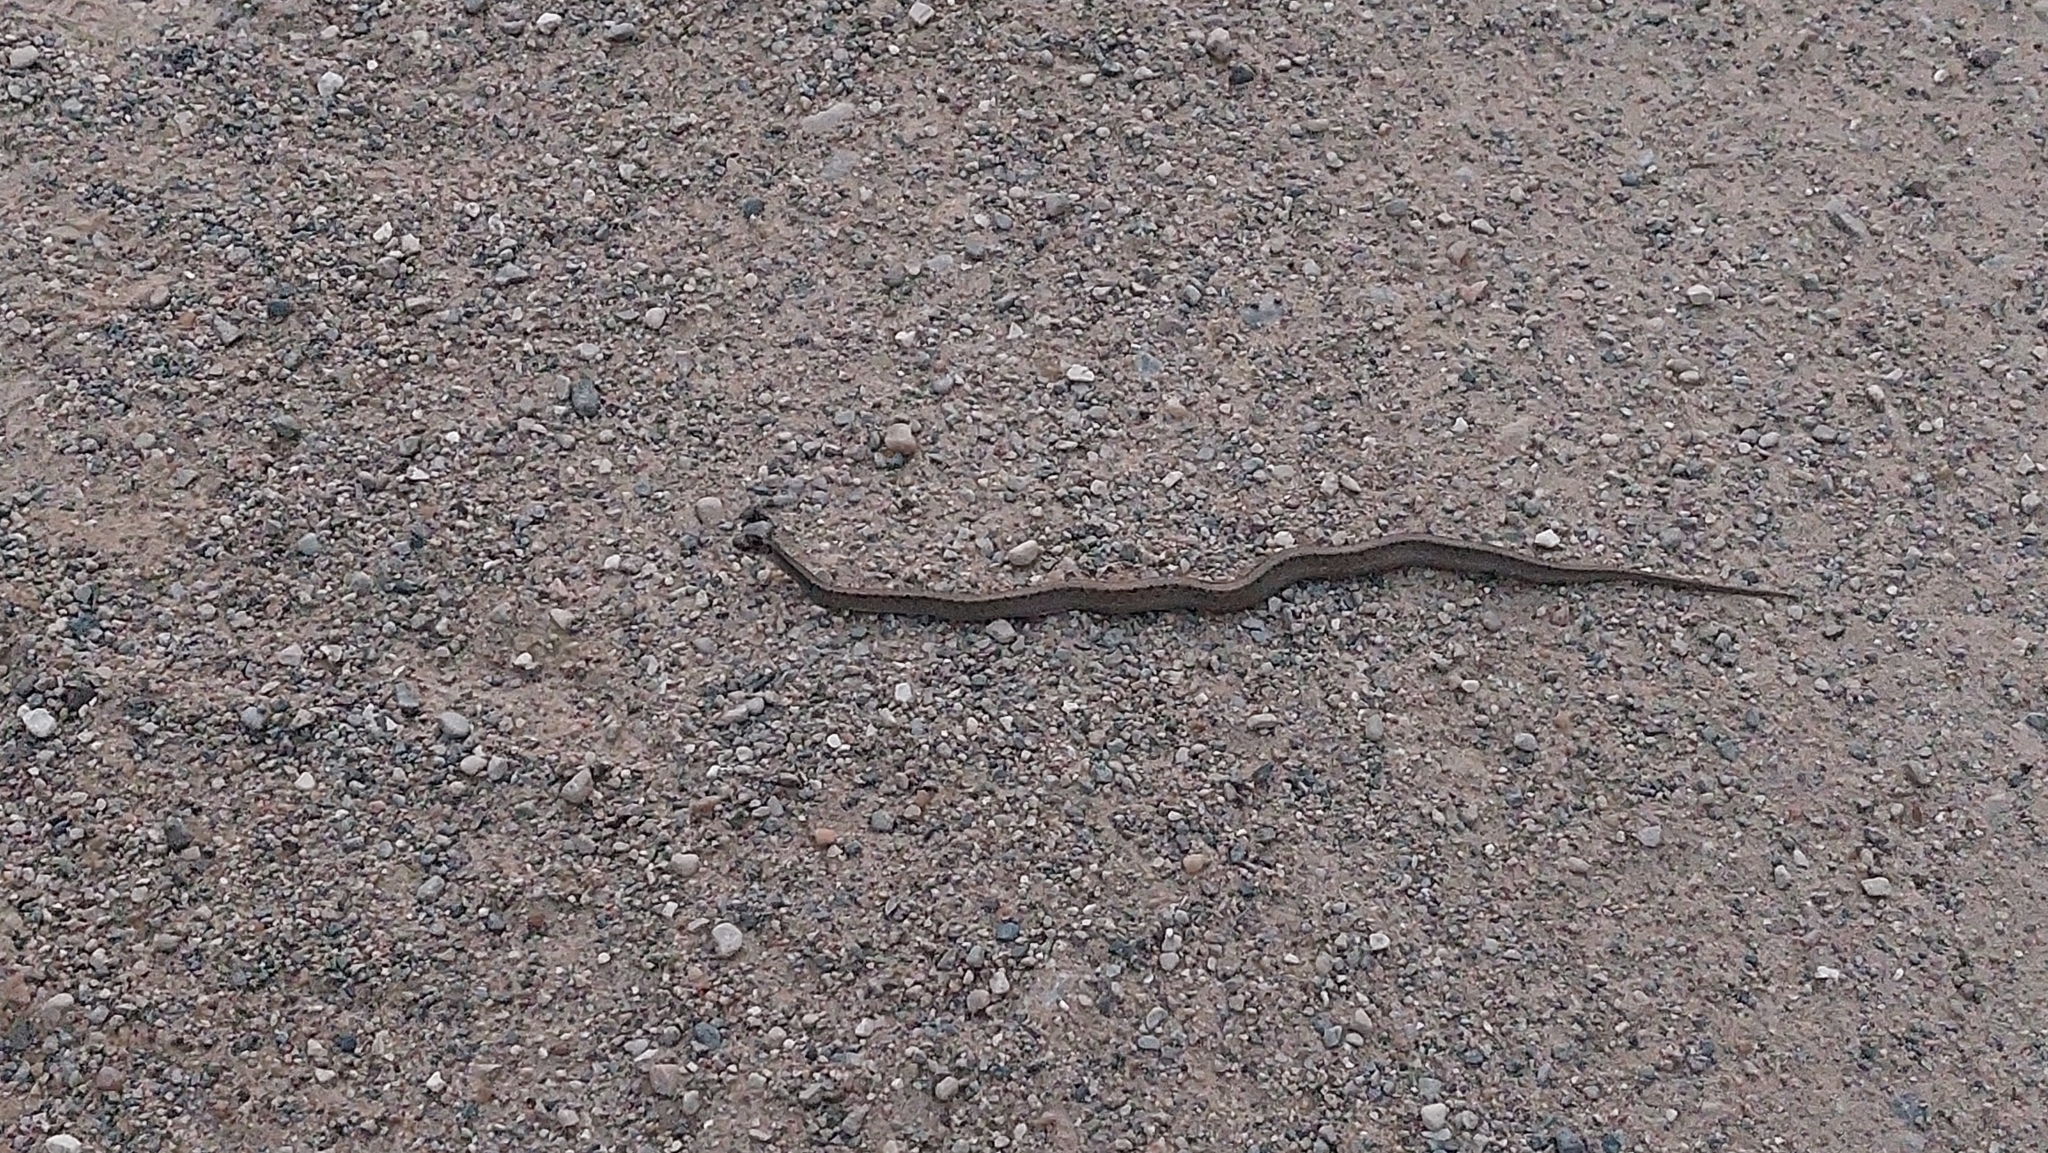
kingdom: Animalia
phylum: Chordata
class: Squamata
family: Colubridae
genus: Storeria
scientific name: Storeria dekayi
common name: (dekay’s) brown snake
